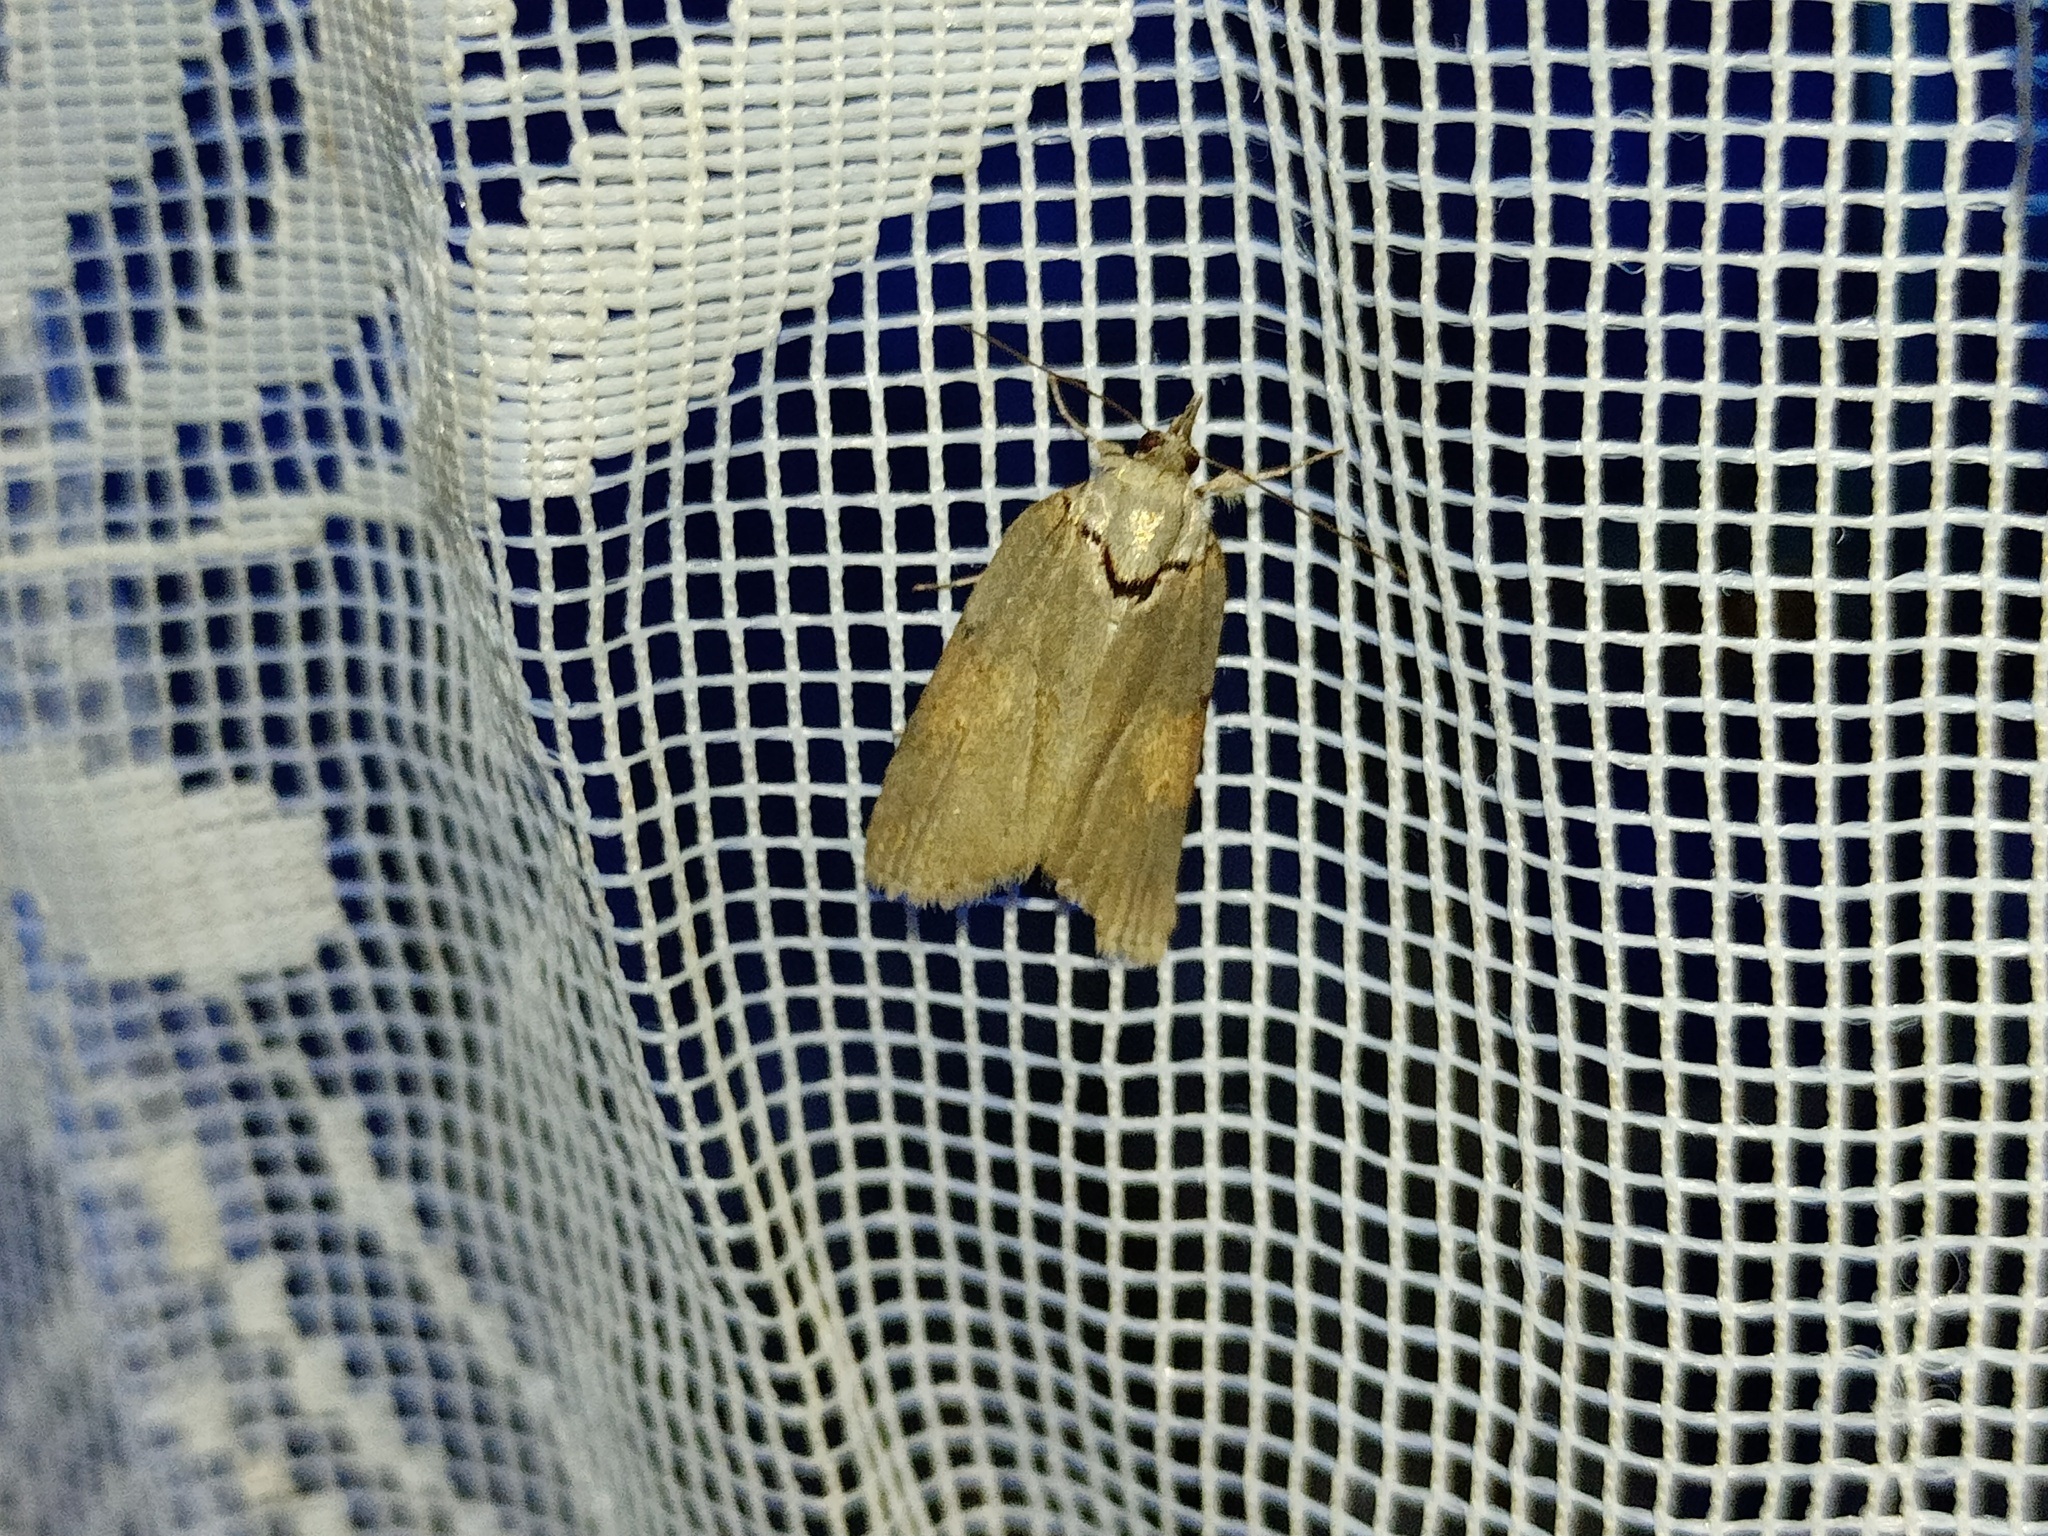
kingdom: Animalia
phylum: Arthropoda
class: Insecta
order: Lepidoptera
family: Nolidae
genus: Nycteola
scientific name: Nycteola revayana
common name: Oak nycteoline
